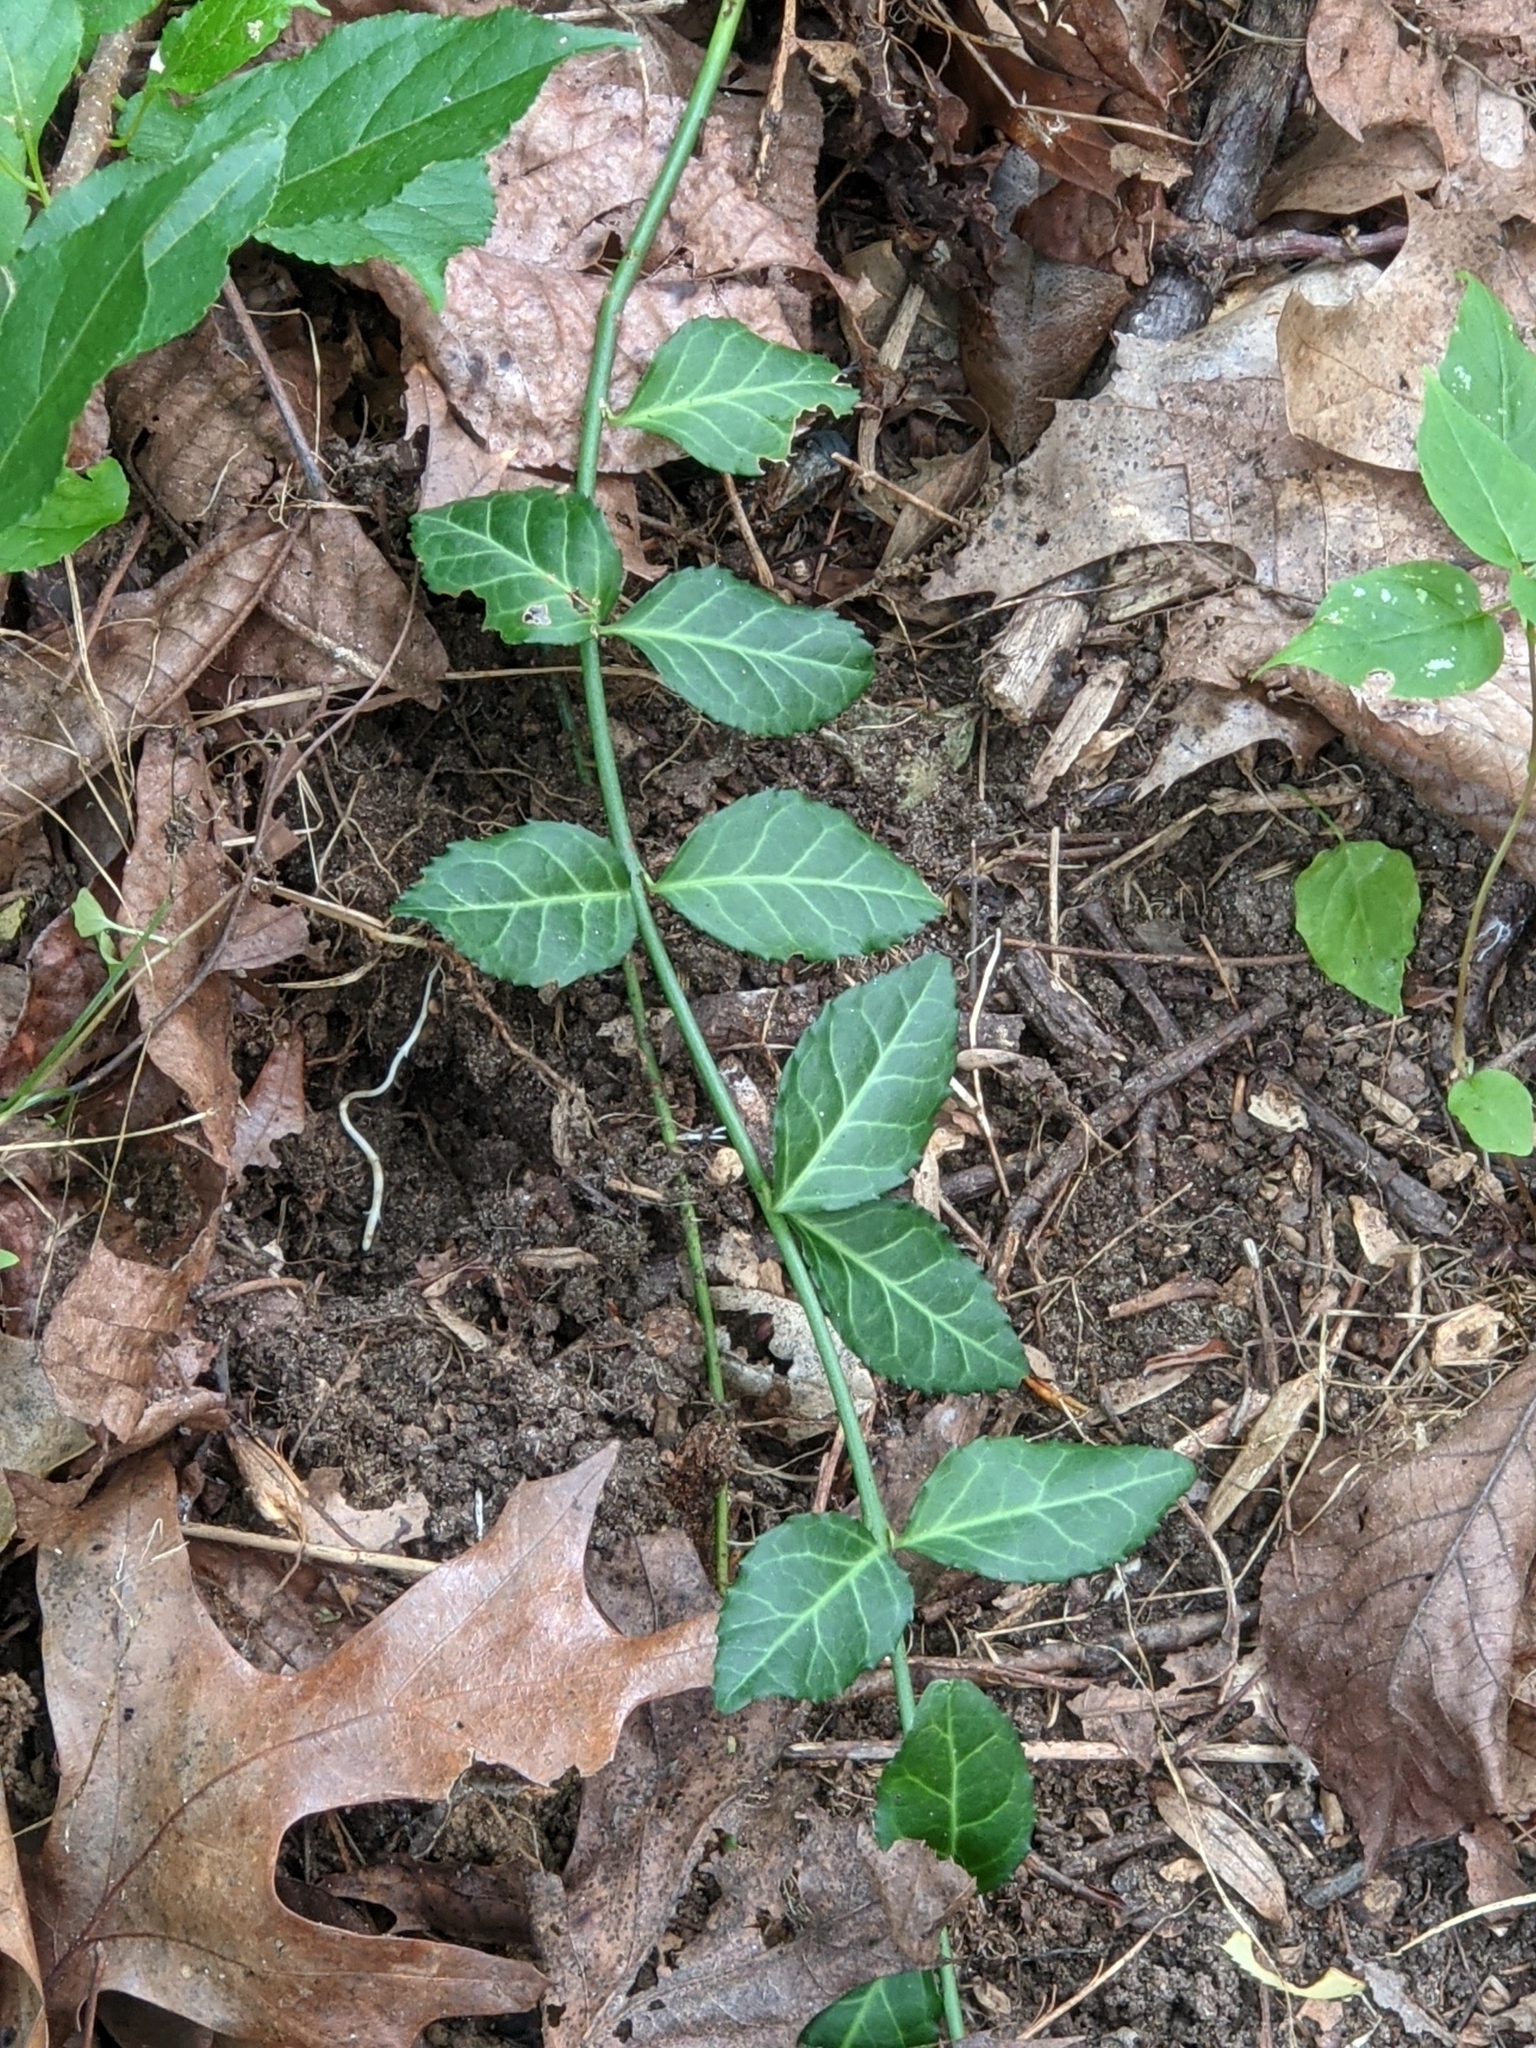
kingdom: Plantae
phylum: Tracheophyta
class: Magnoliopsida
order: Celastrales
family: Celastraceae
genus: Euonymus
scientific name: Euonymus fortunei
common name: Climbing euonymus
